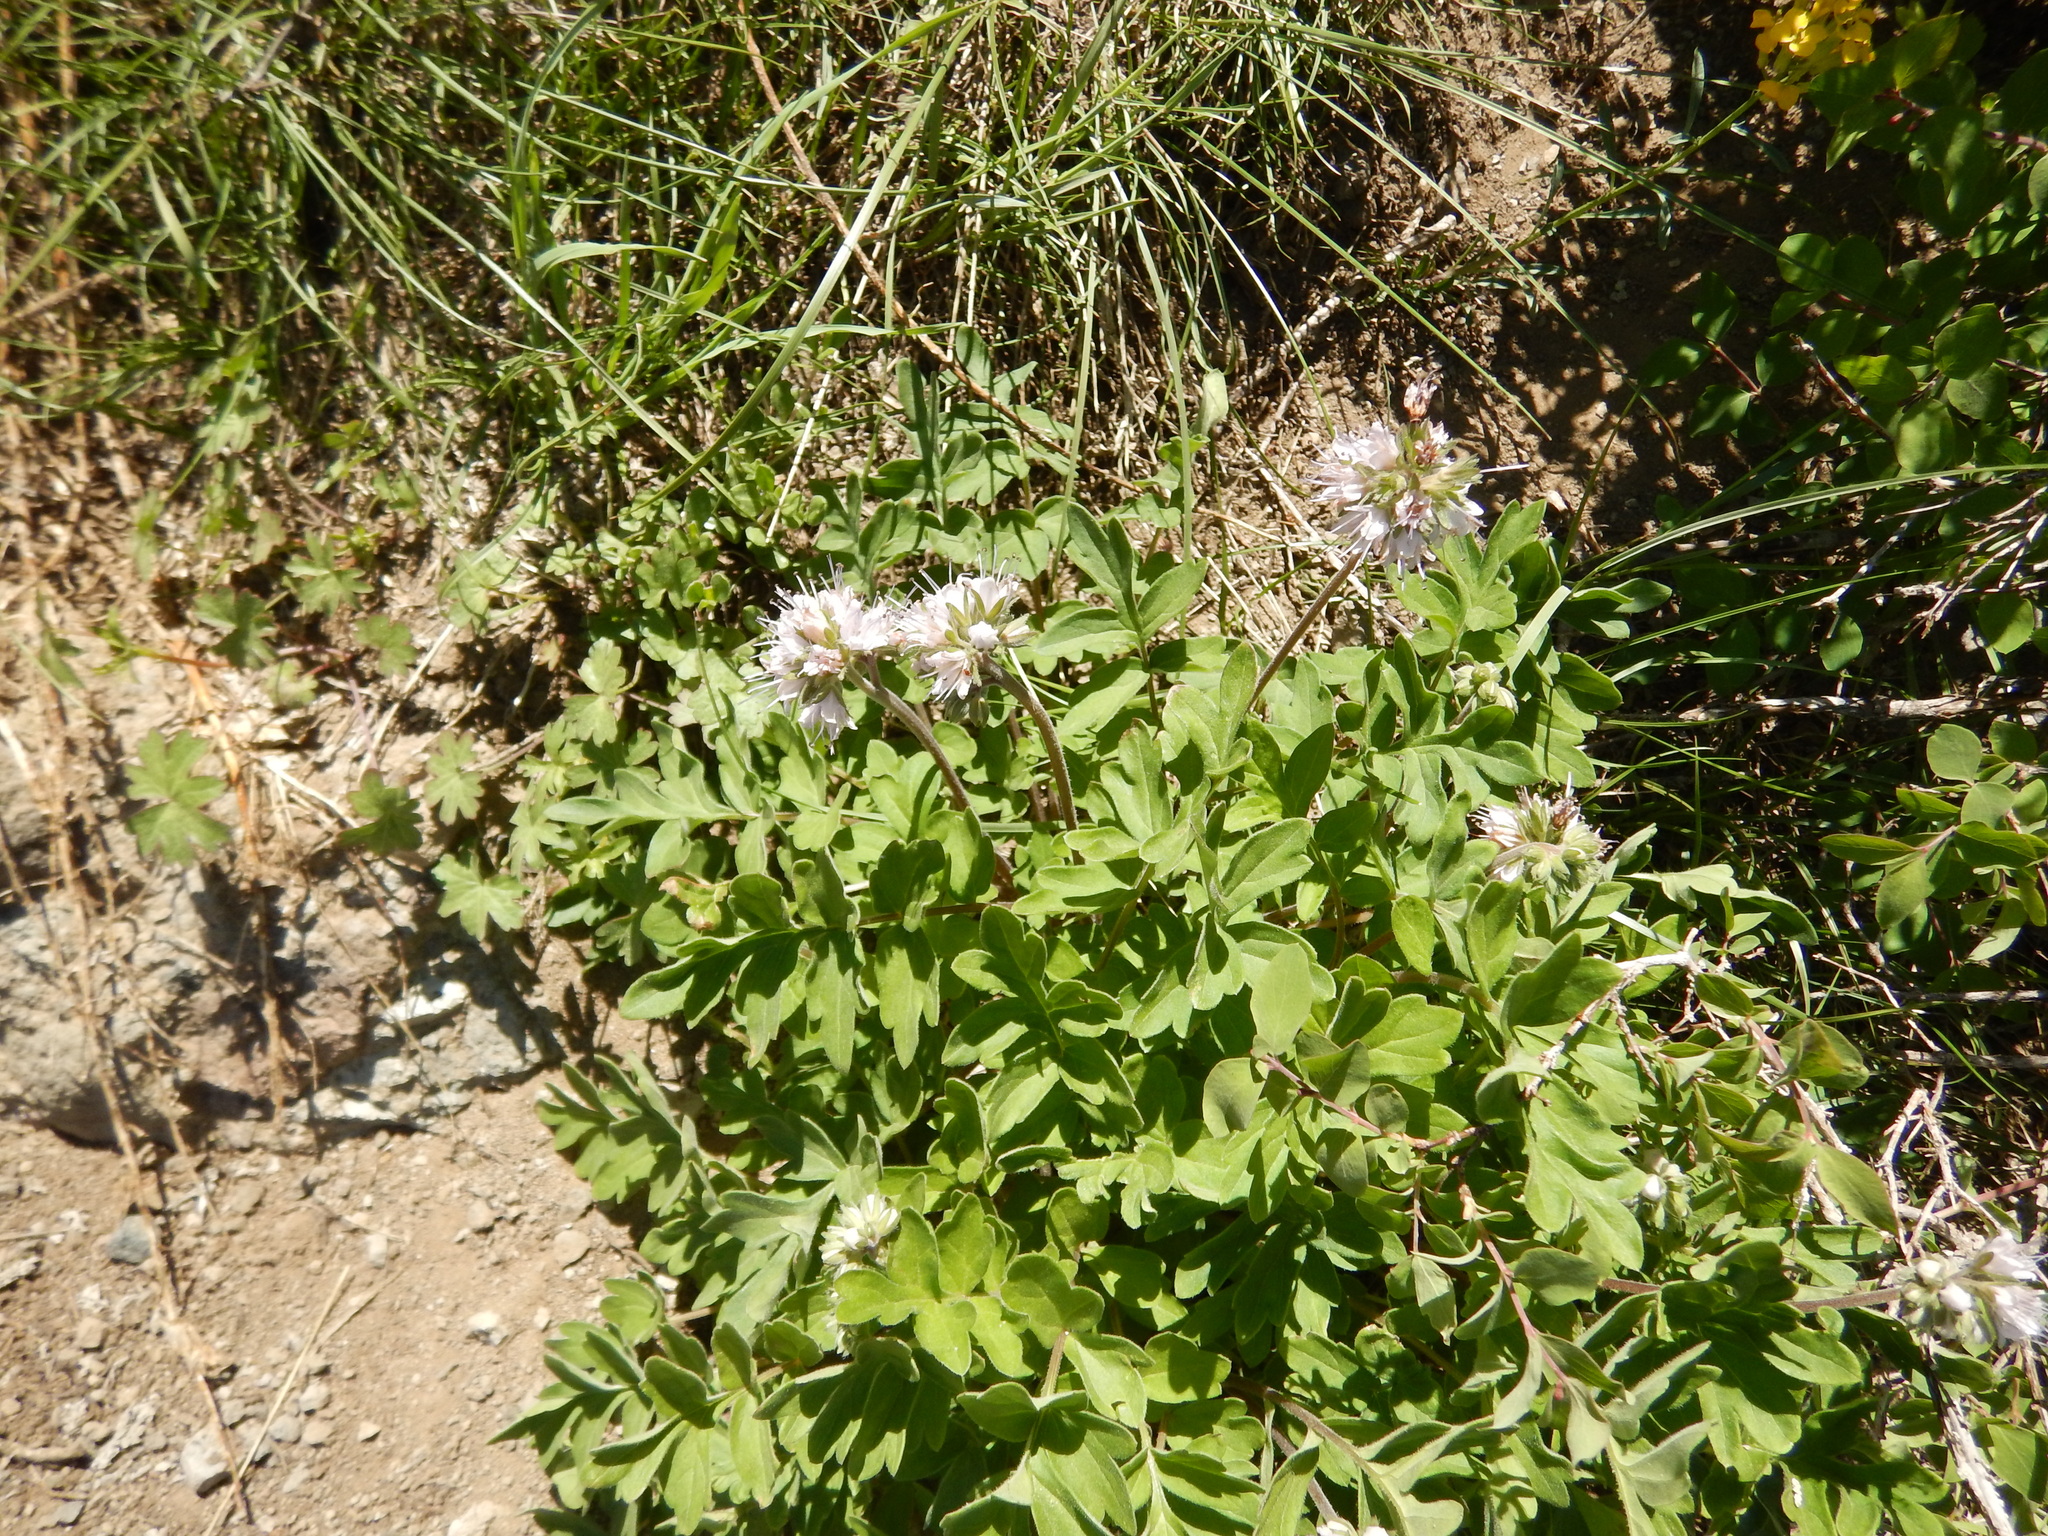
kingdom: Plantae
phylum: Tracheophyta
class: Magnoliopsida
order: Boraginales
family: Hydrophyllaceae
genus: Hydrophyllum
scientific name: Hydrophyllum occidentale
